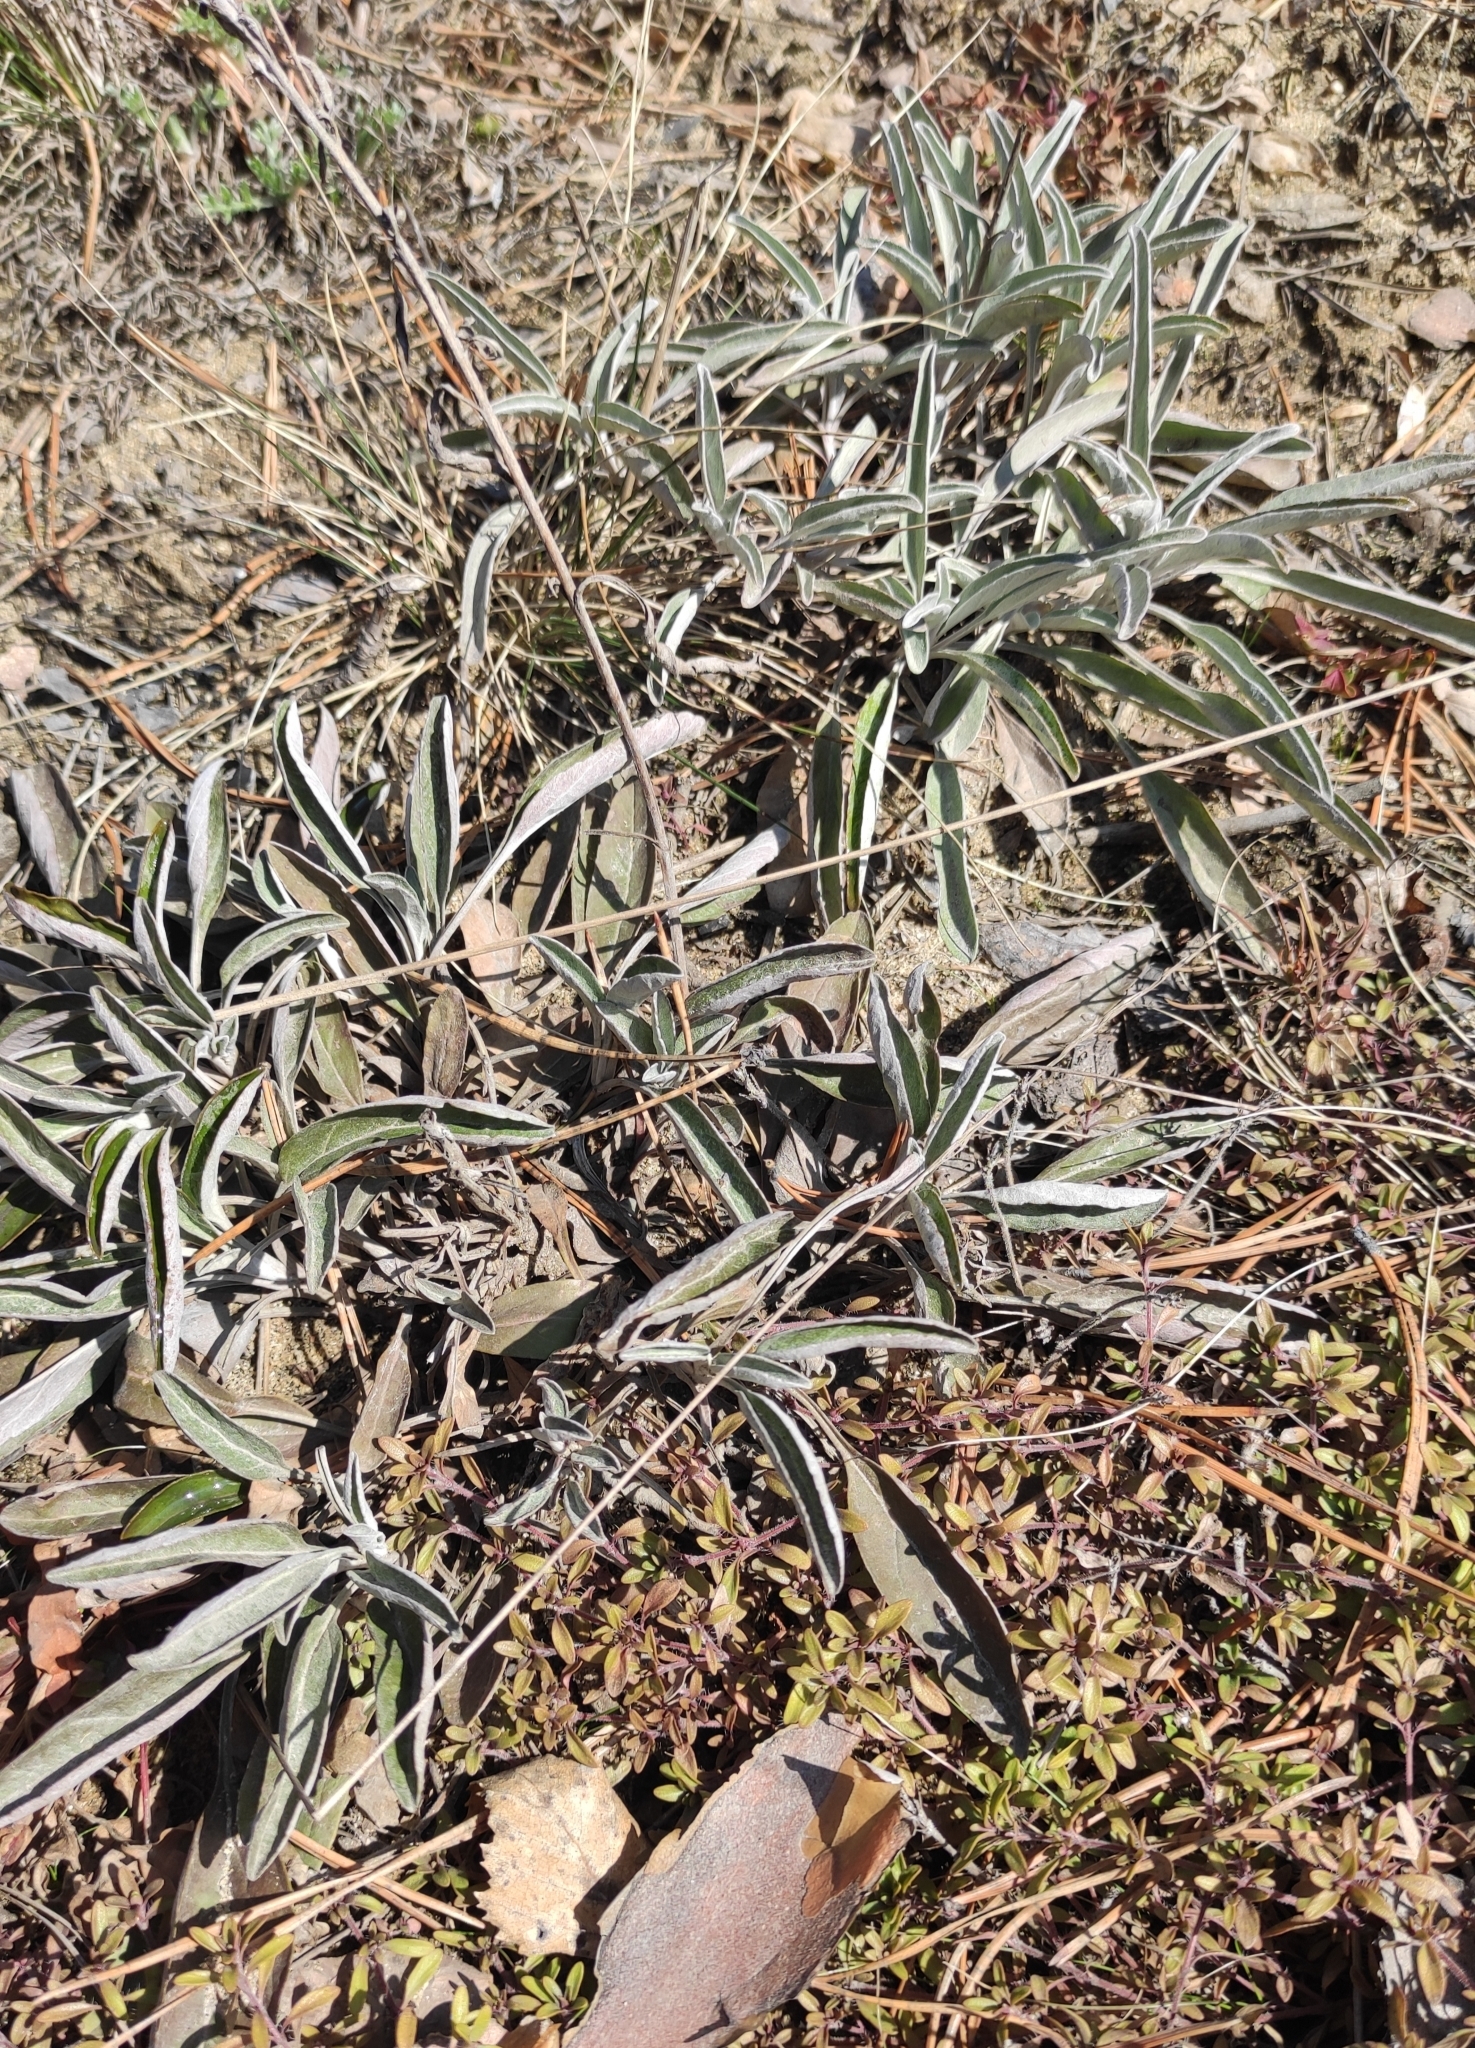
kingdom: Plantae
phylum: Tracheophyta
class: Magnoliopsida
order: Lamiales
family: Plantaginaceae
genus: Veronica
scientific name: Veronica incana
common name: Silver speedwell
